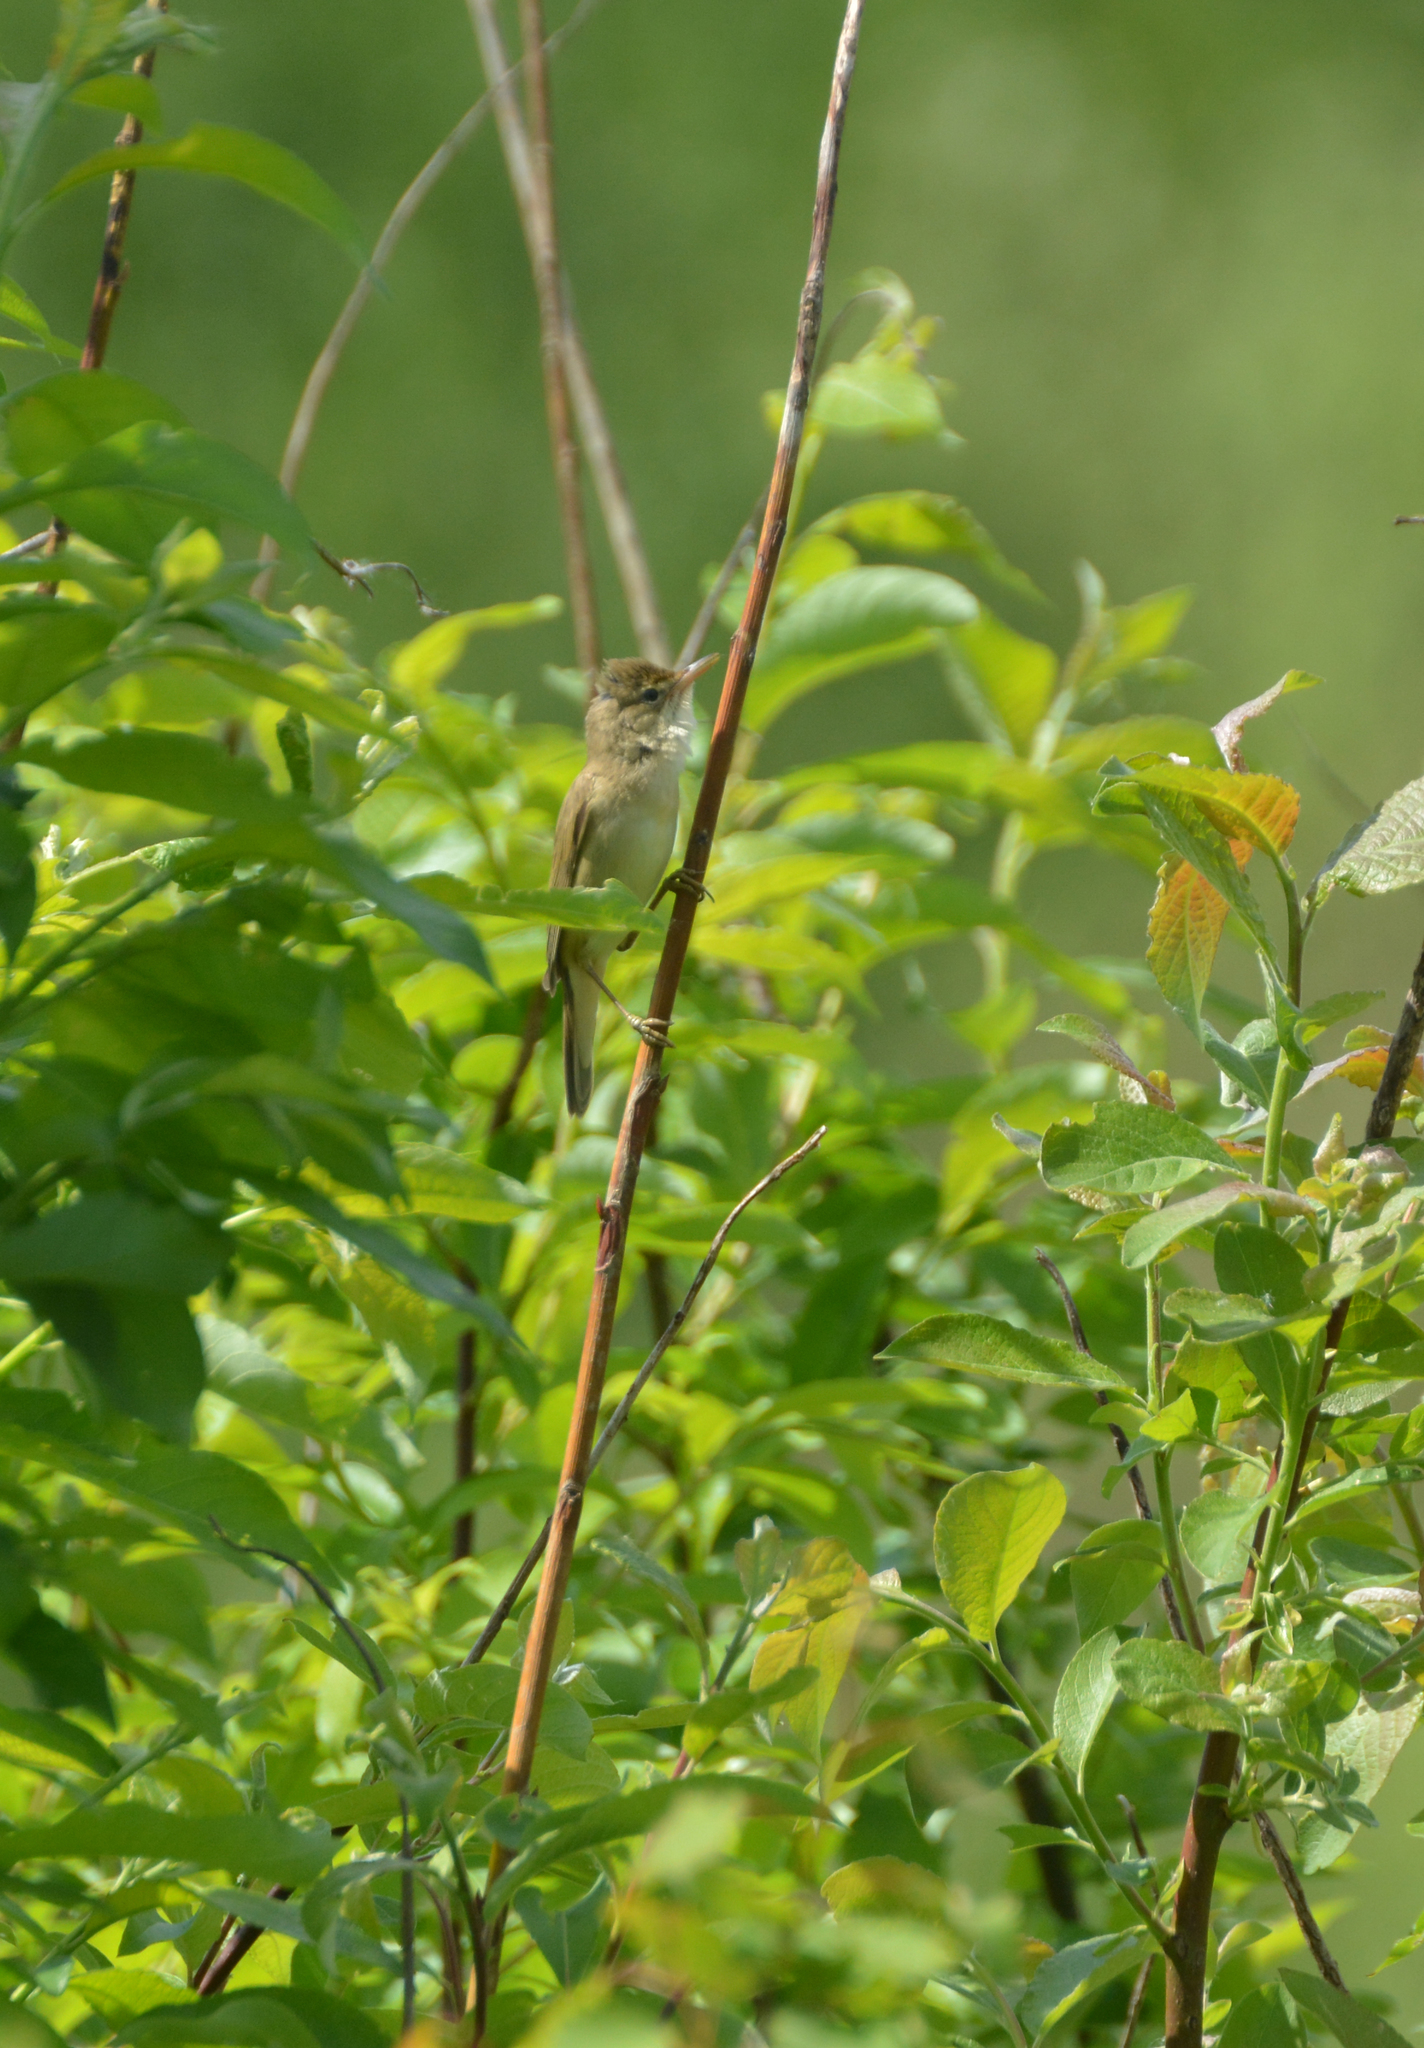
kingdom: Animalia
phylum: Chordata
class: Aves
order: Passeriformes
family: Acrocephalidae
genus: Acrocephalus
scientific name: Acrocephalus palustris
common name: Marsh warbler
